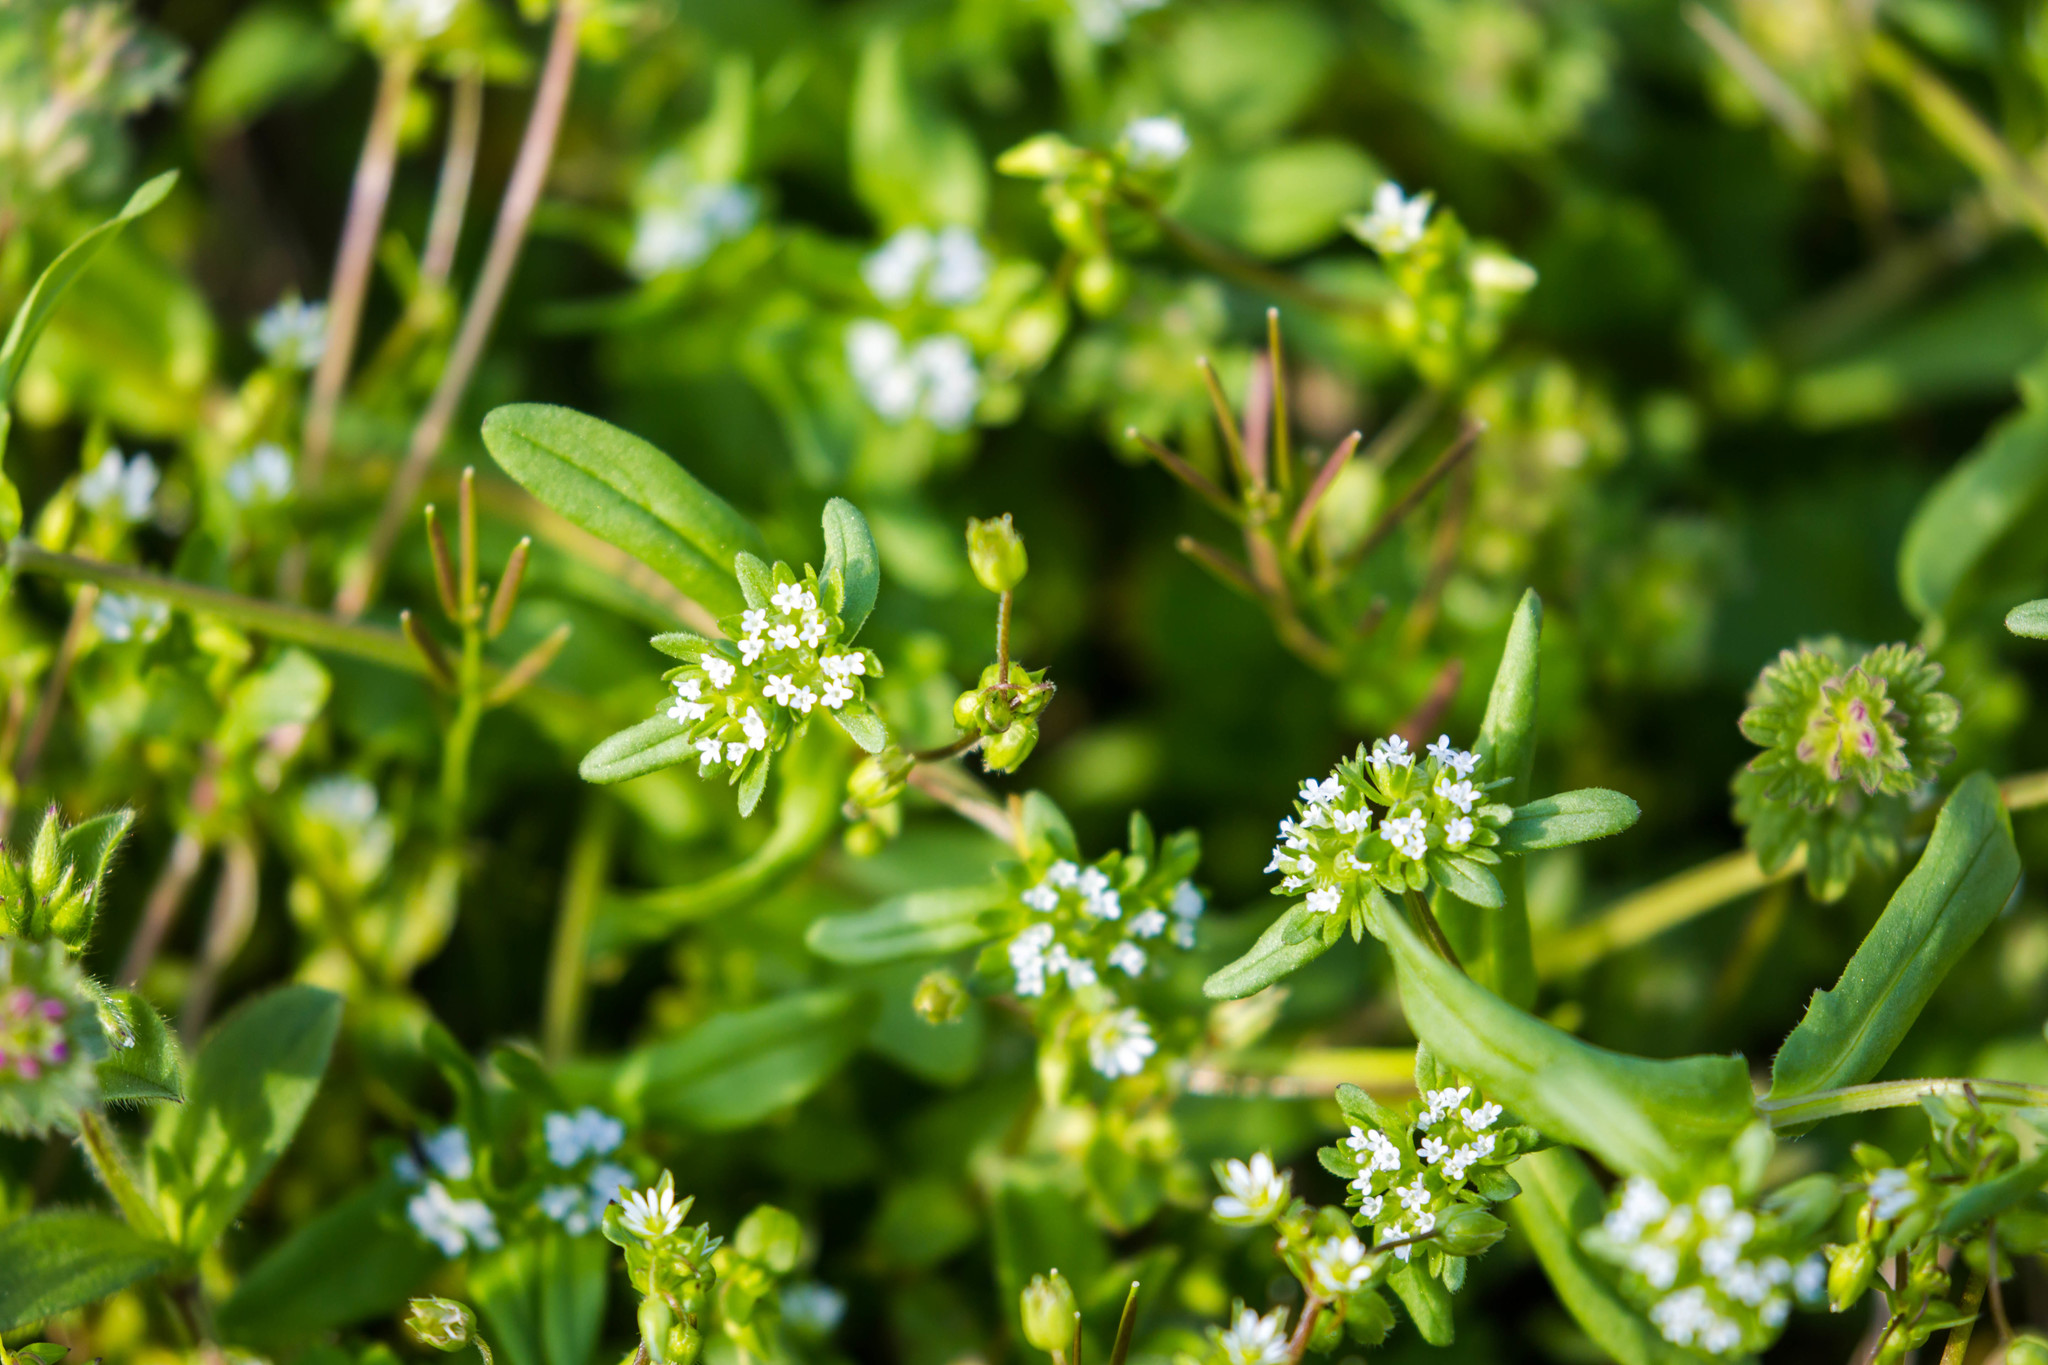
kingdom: Plantae
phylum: Tracheophyta
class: Magnoliopsida
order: Dipsacales
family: Caprifoliaceae
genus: Valerianella
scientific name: Valerianella locusta
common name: Common cornsalad
